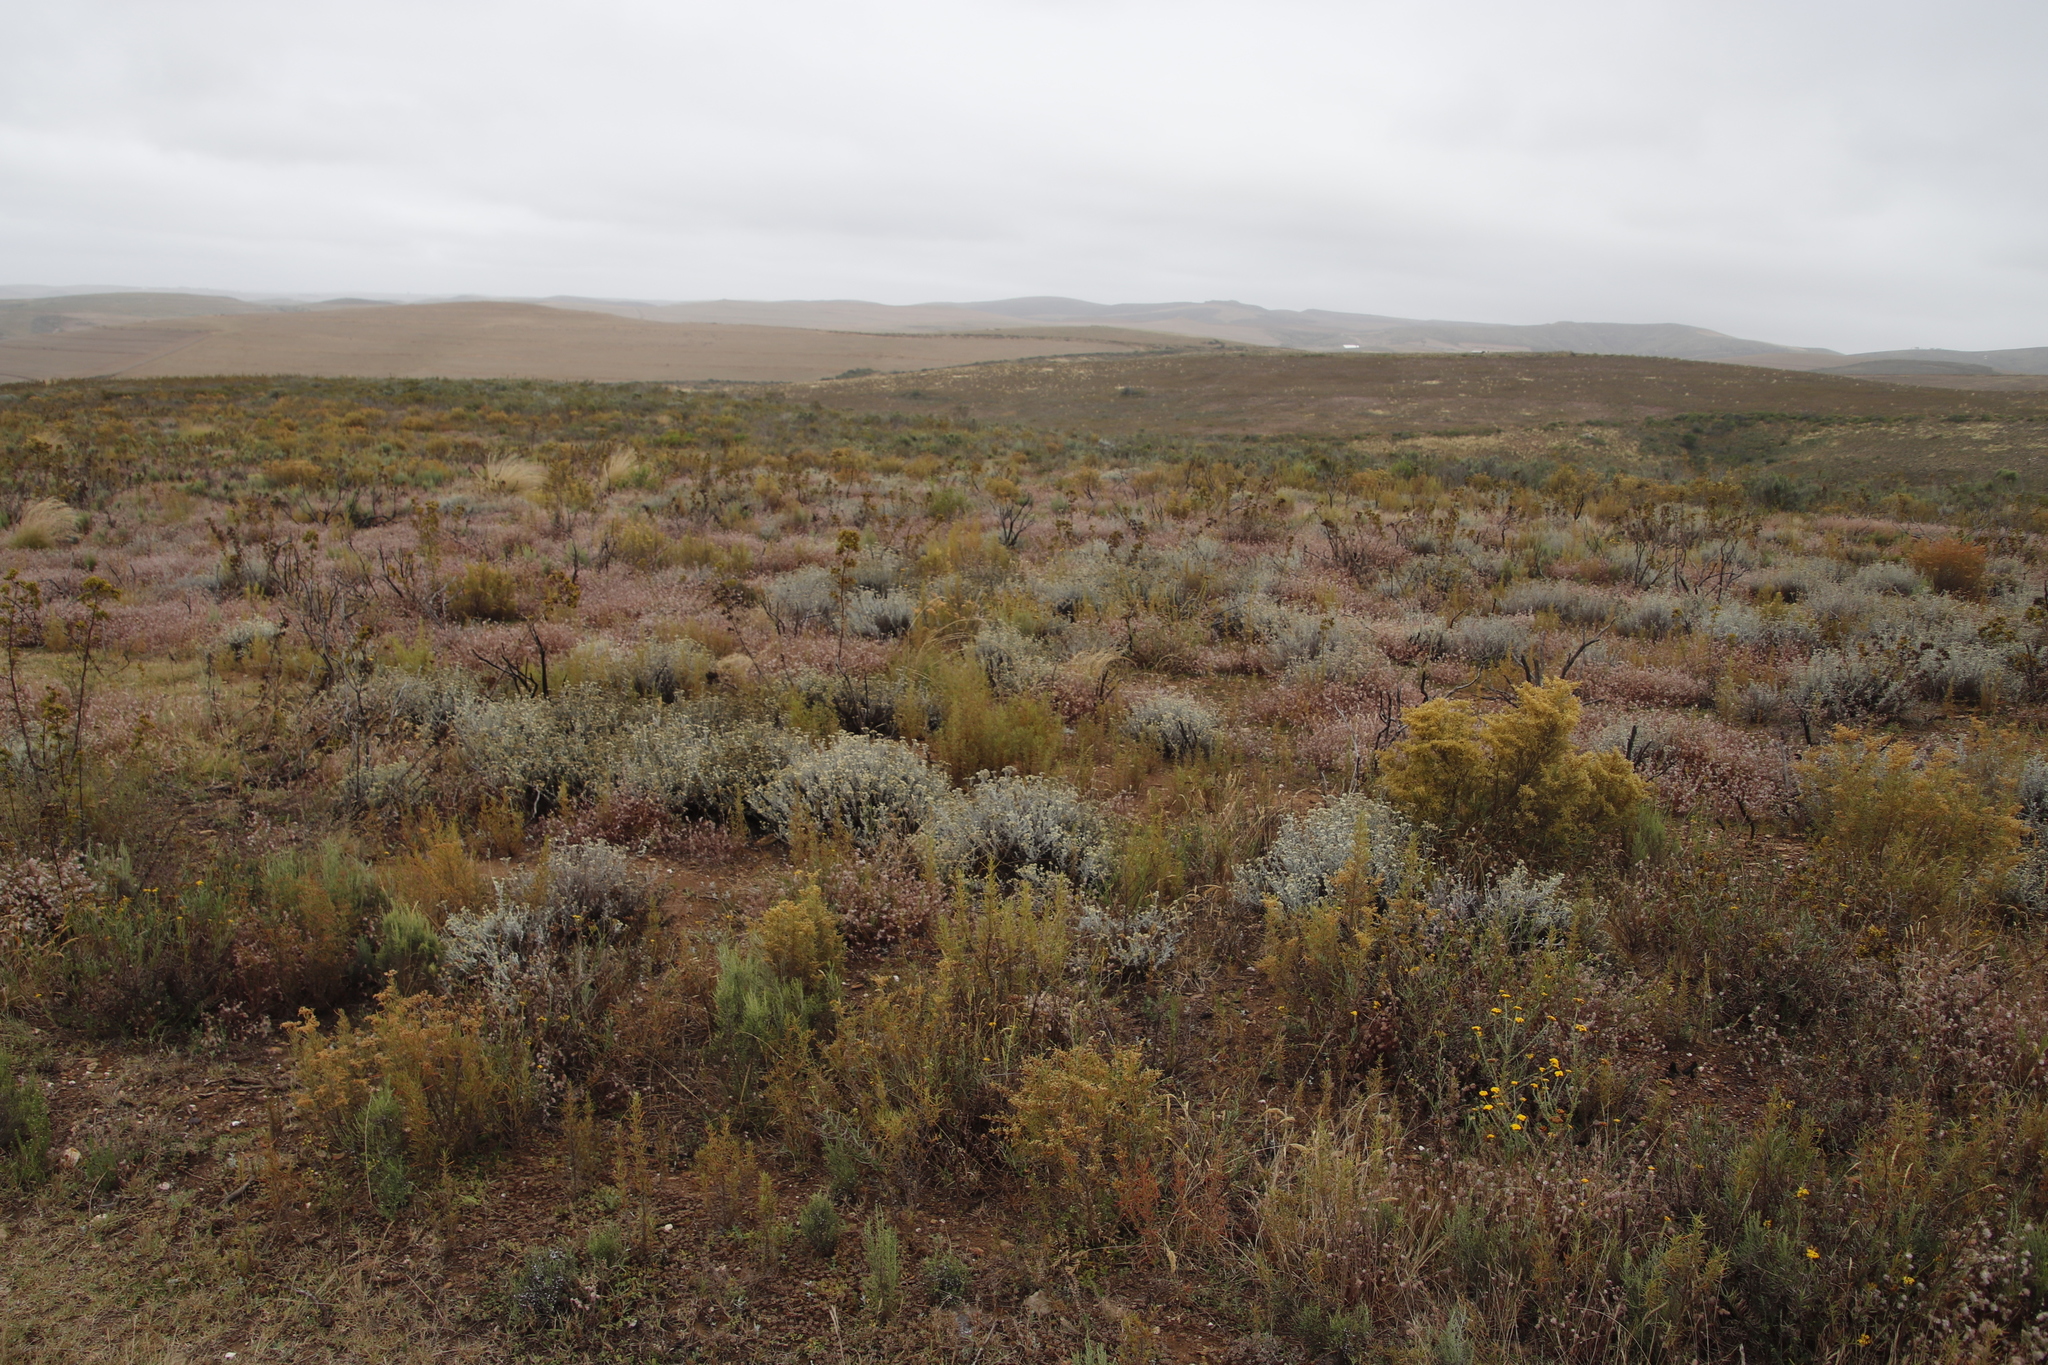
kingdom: Plantae
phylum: Tracheophyta
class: Magnoliopsida
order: Caryophyllales
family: Aizoaceae
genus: Aizoon
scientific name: Aizoon africanum
